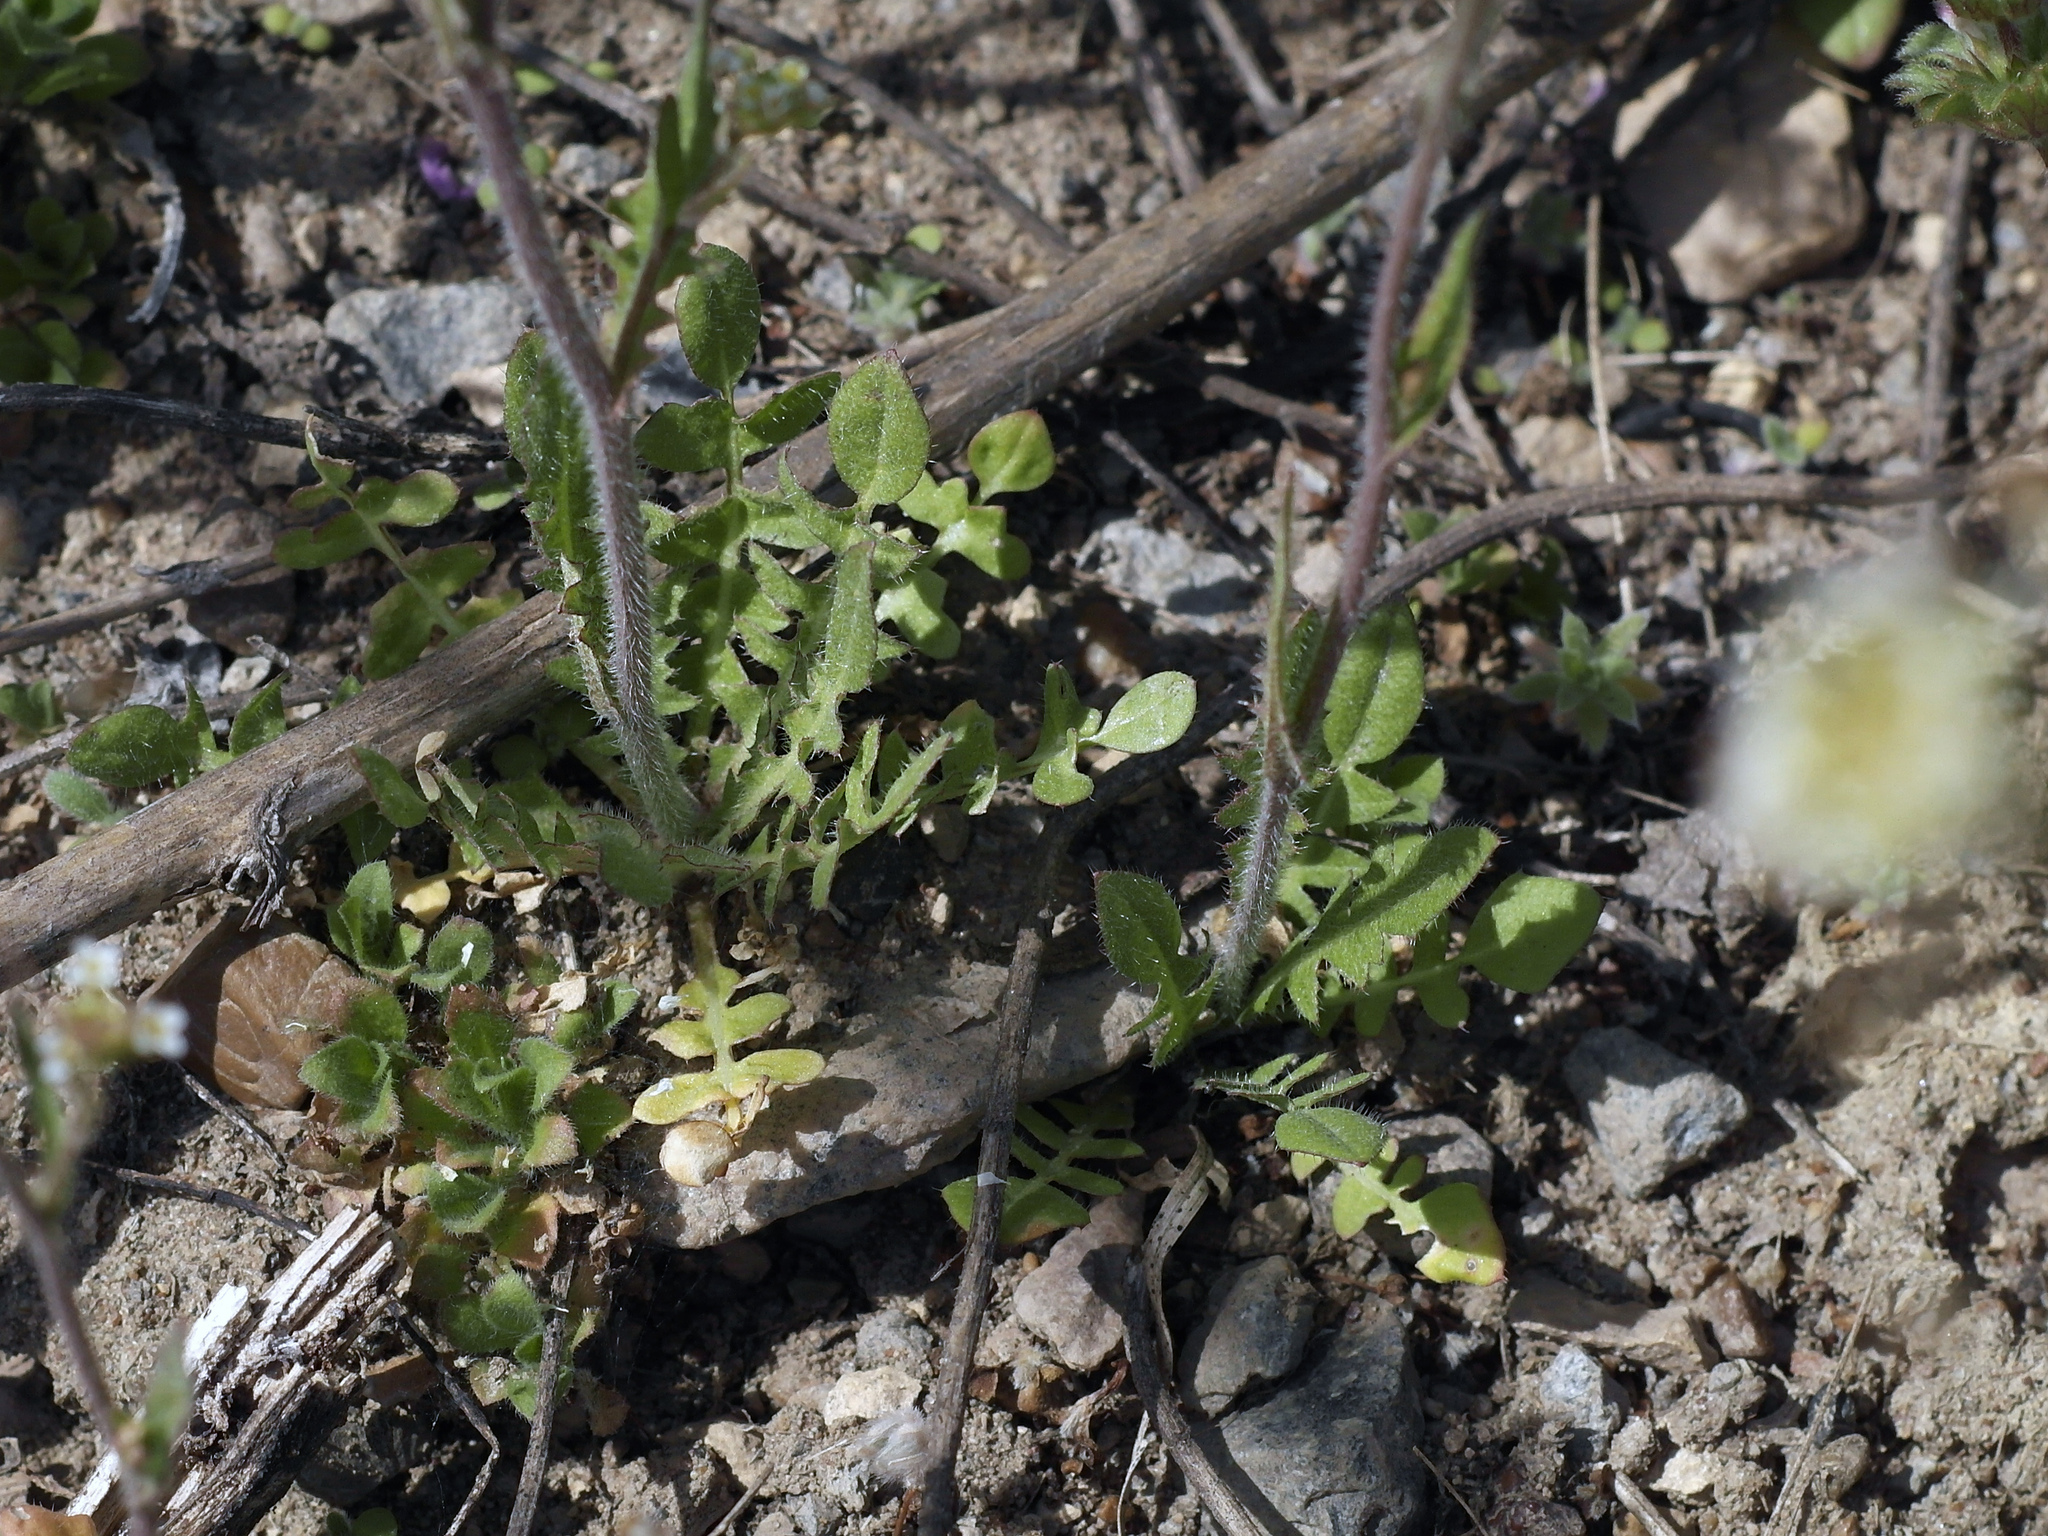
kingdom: Plantae
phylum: Tracheophyta
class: Magnoliopsida
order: Brassicales
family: Brassicaceae
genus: Capsella
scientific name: Capsella bursa-pastoris
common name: Shepherd's purse
